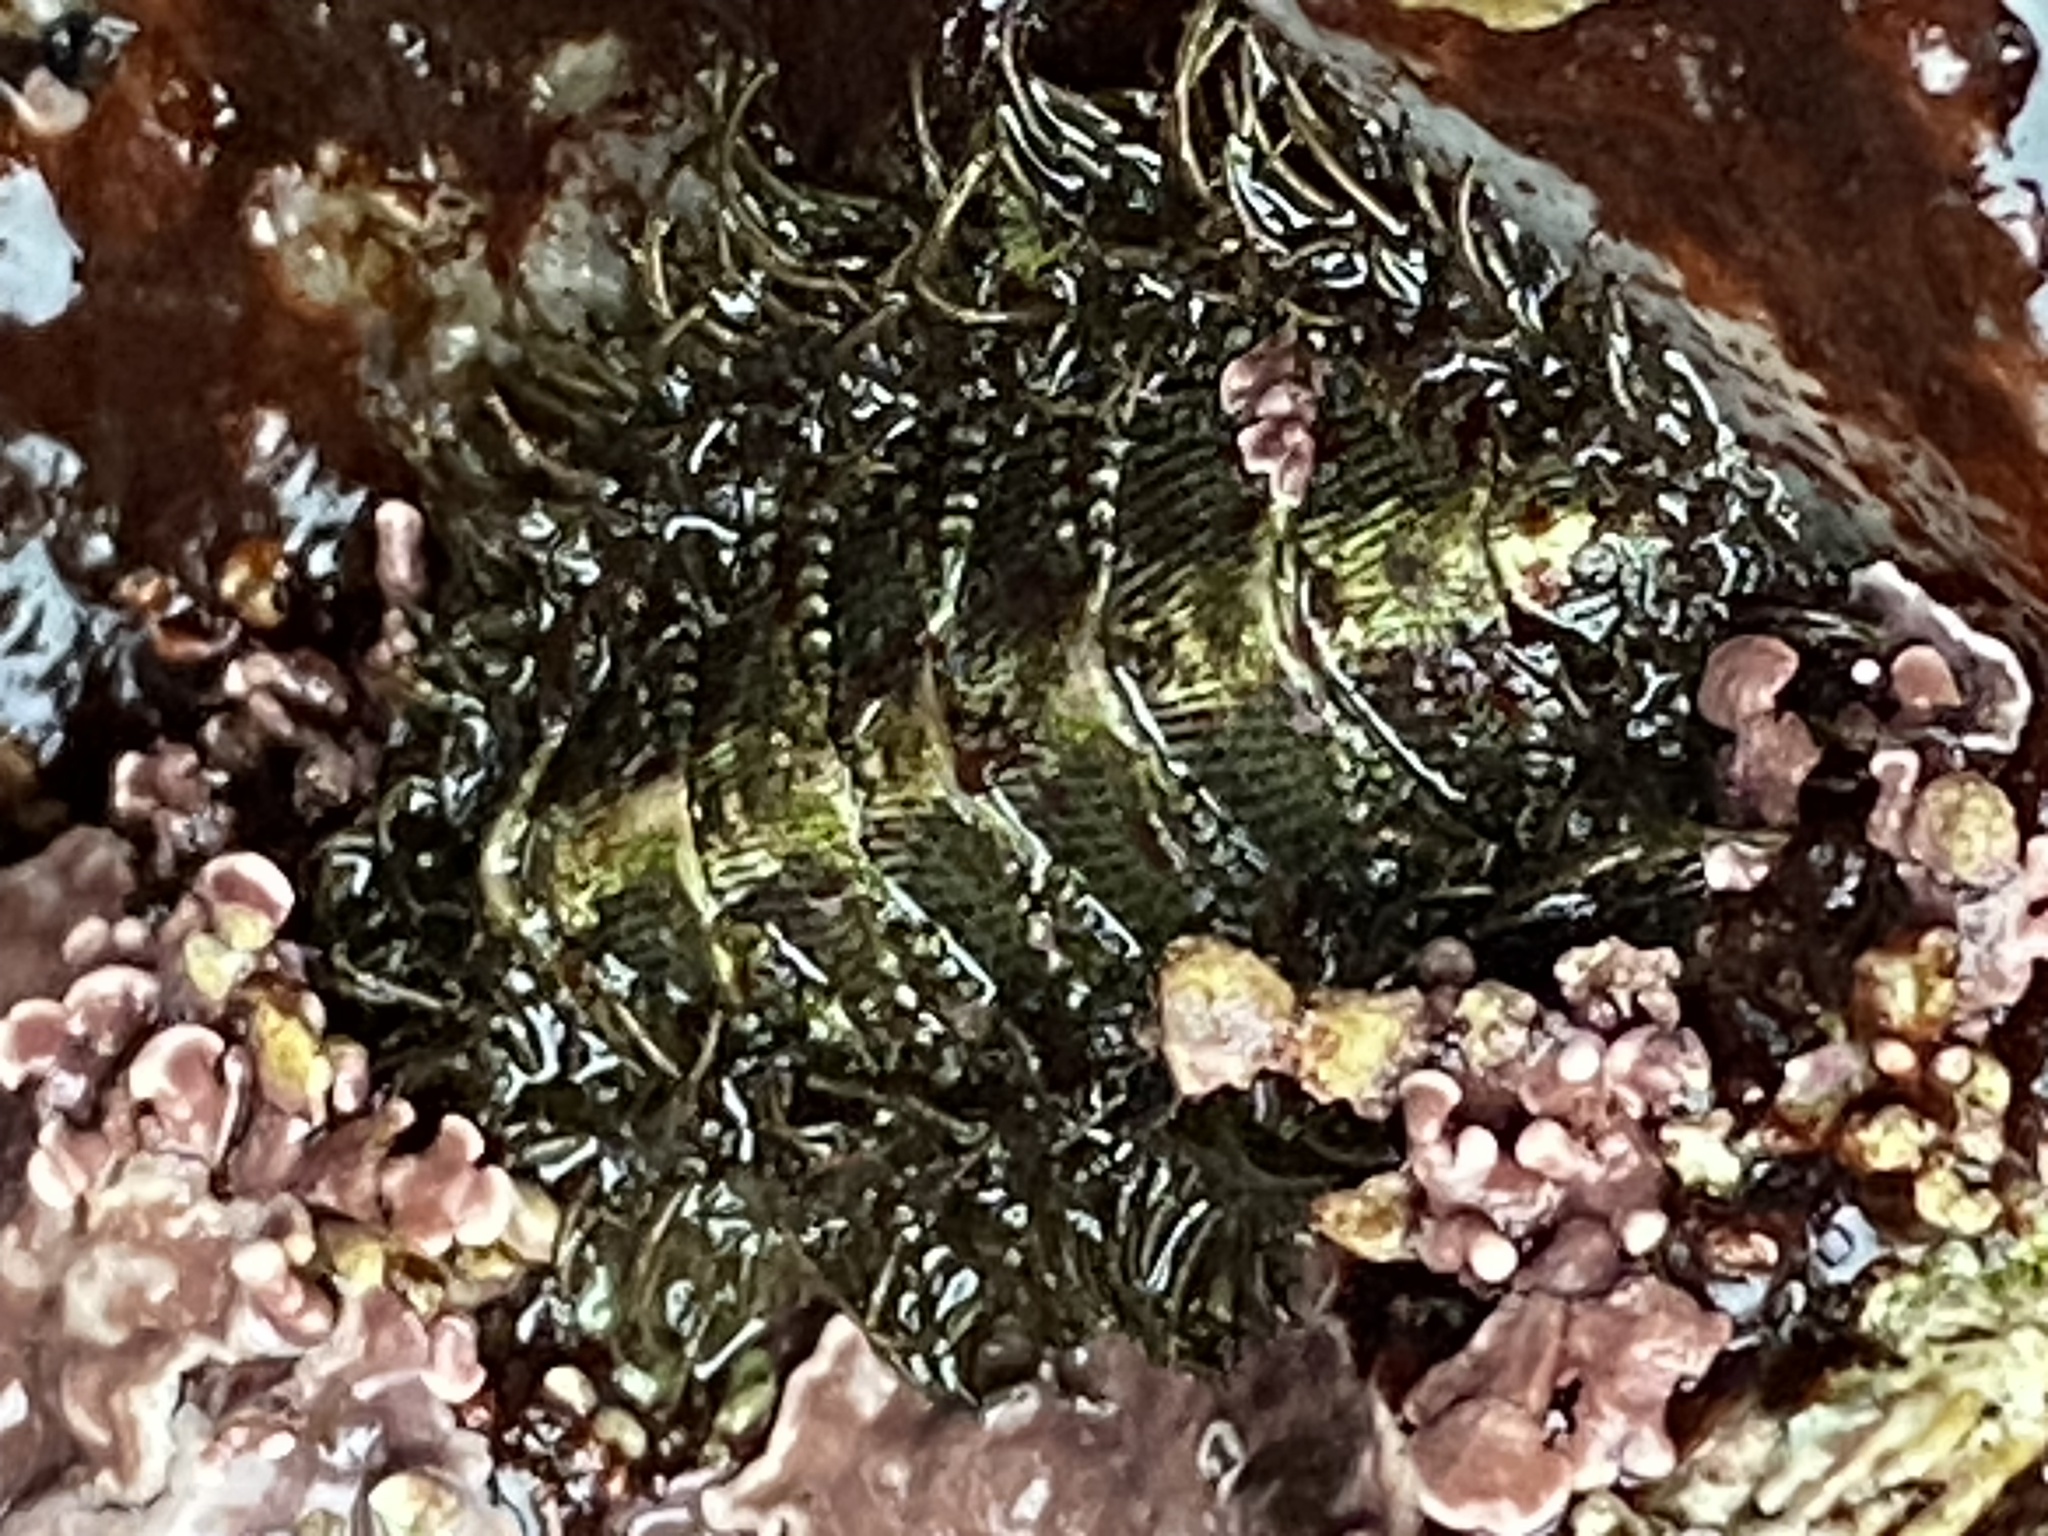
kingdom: Animalia
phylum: Mollusca
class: Polyplacophora
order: Chitonida
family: Mopaliidae
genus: Mopalia
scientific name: Mopalia muscosa
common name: Mossy chiton
